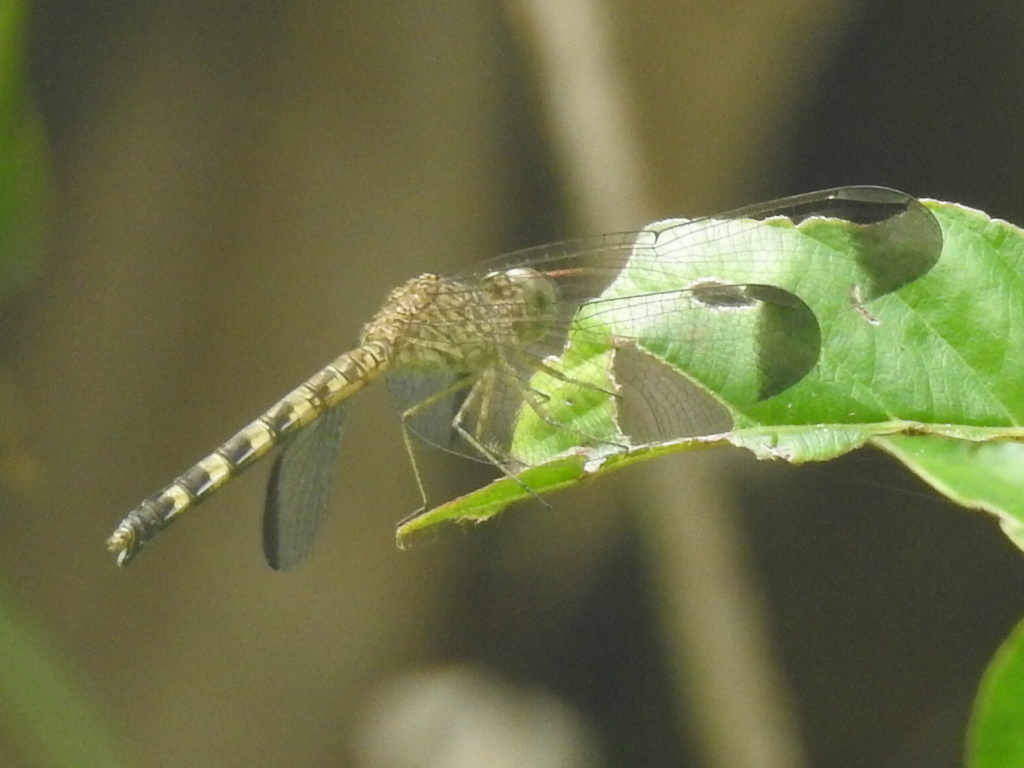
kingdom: Animalia
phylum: Arthropoda
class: Insecta
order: Odonata
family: Libellulidae
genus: Uracis
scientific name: Uracis imbuta
